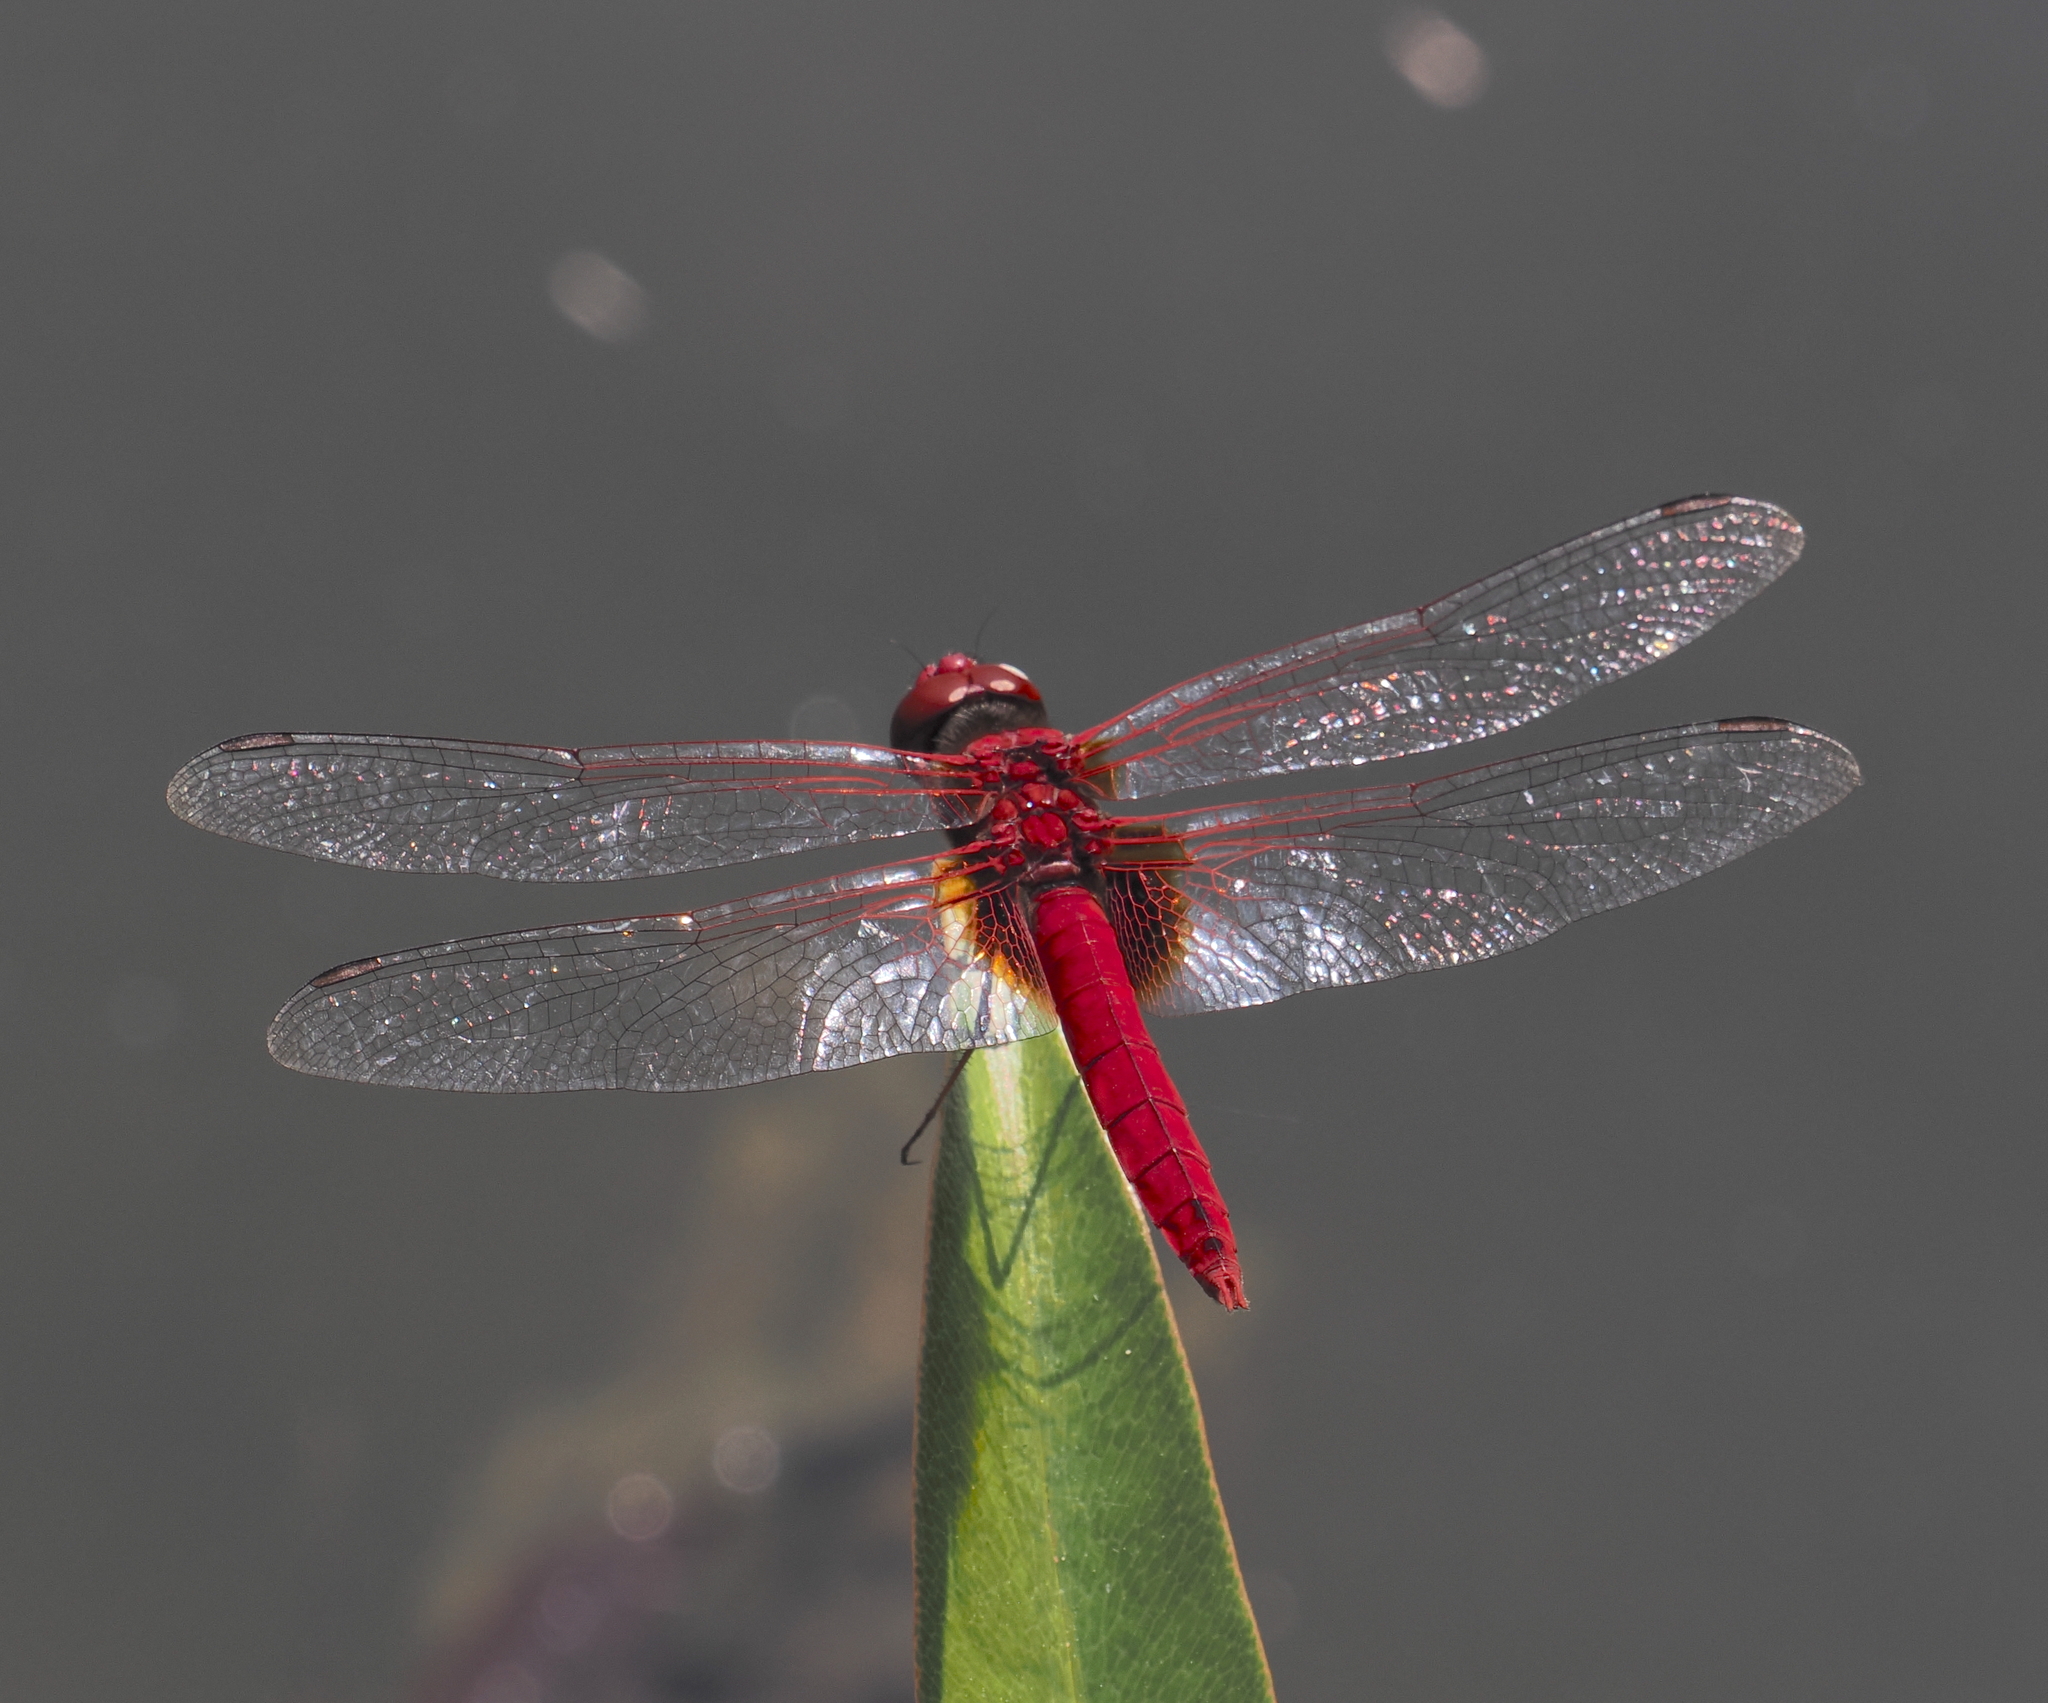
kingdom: Animalia
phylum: Arthropoda
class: Insecta
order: Odonata
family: Libellulidae
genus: Urothemis
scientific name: Urothemis signata
